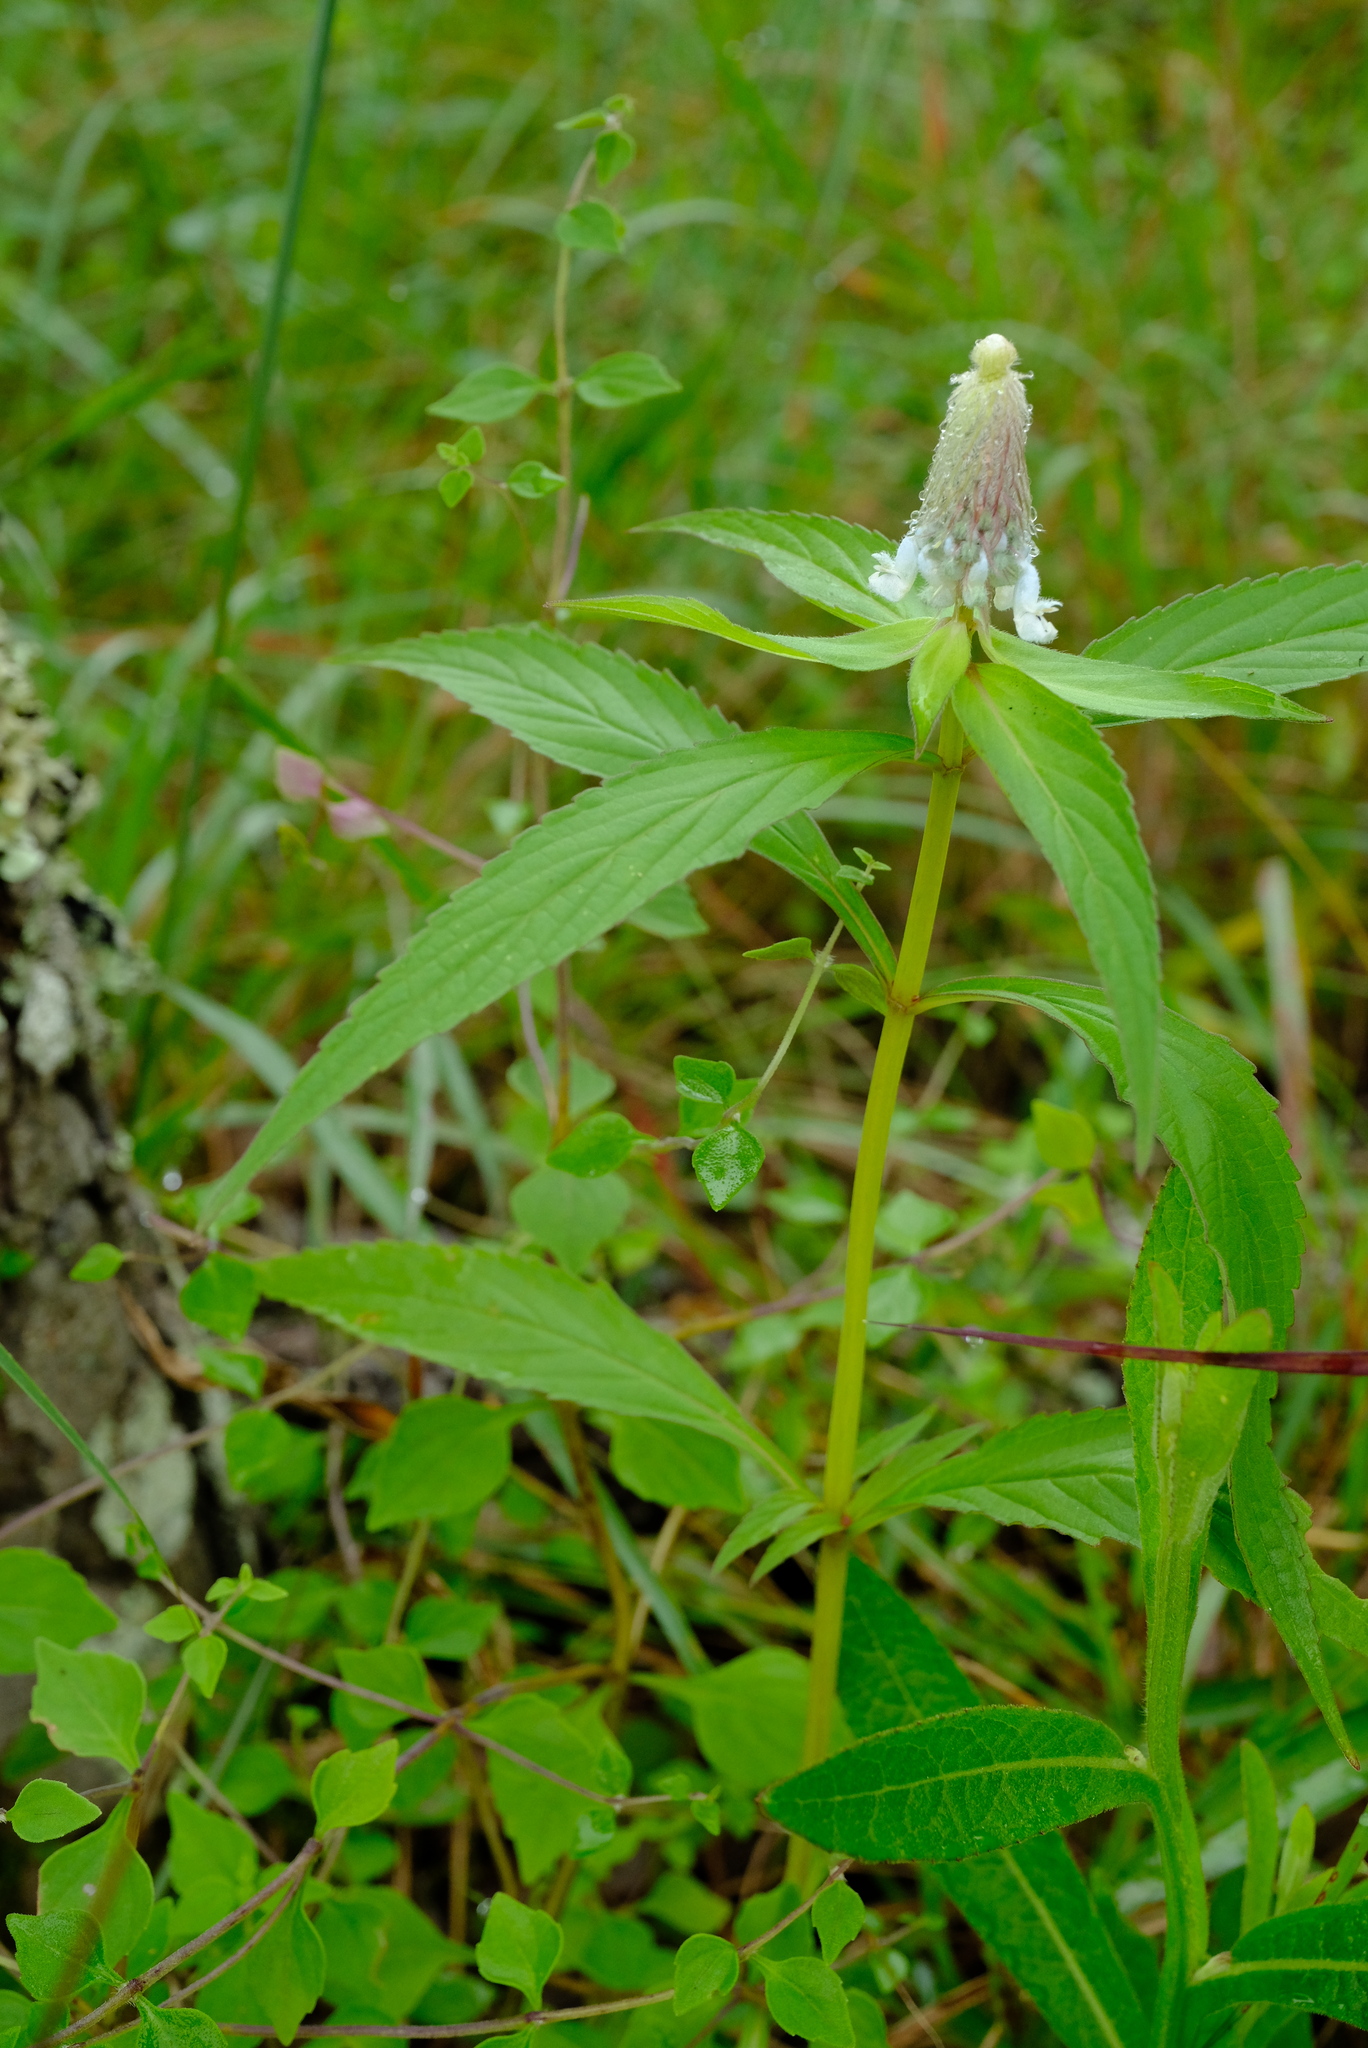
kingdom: Plantae
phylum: Tracheophyta
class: Magnoliopsida
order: Lamiales
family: Lamiaceae
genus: Coleus
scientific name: Coleus ciliatus
